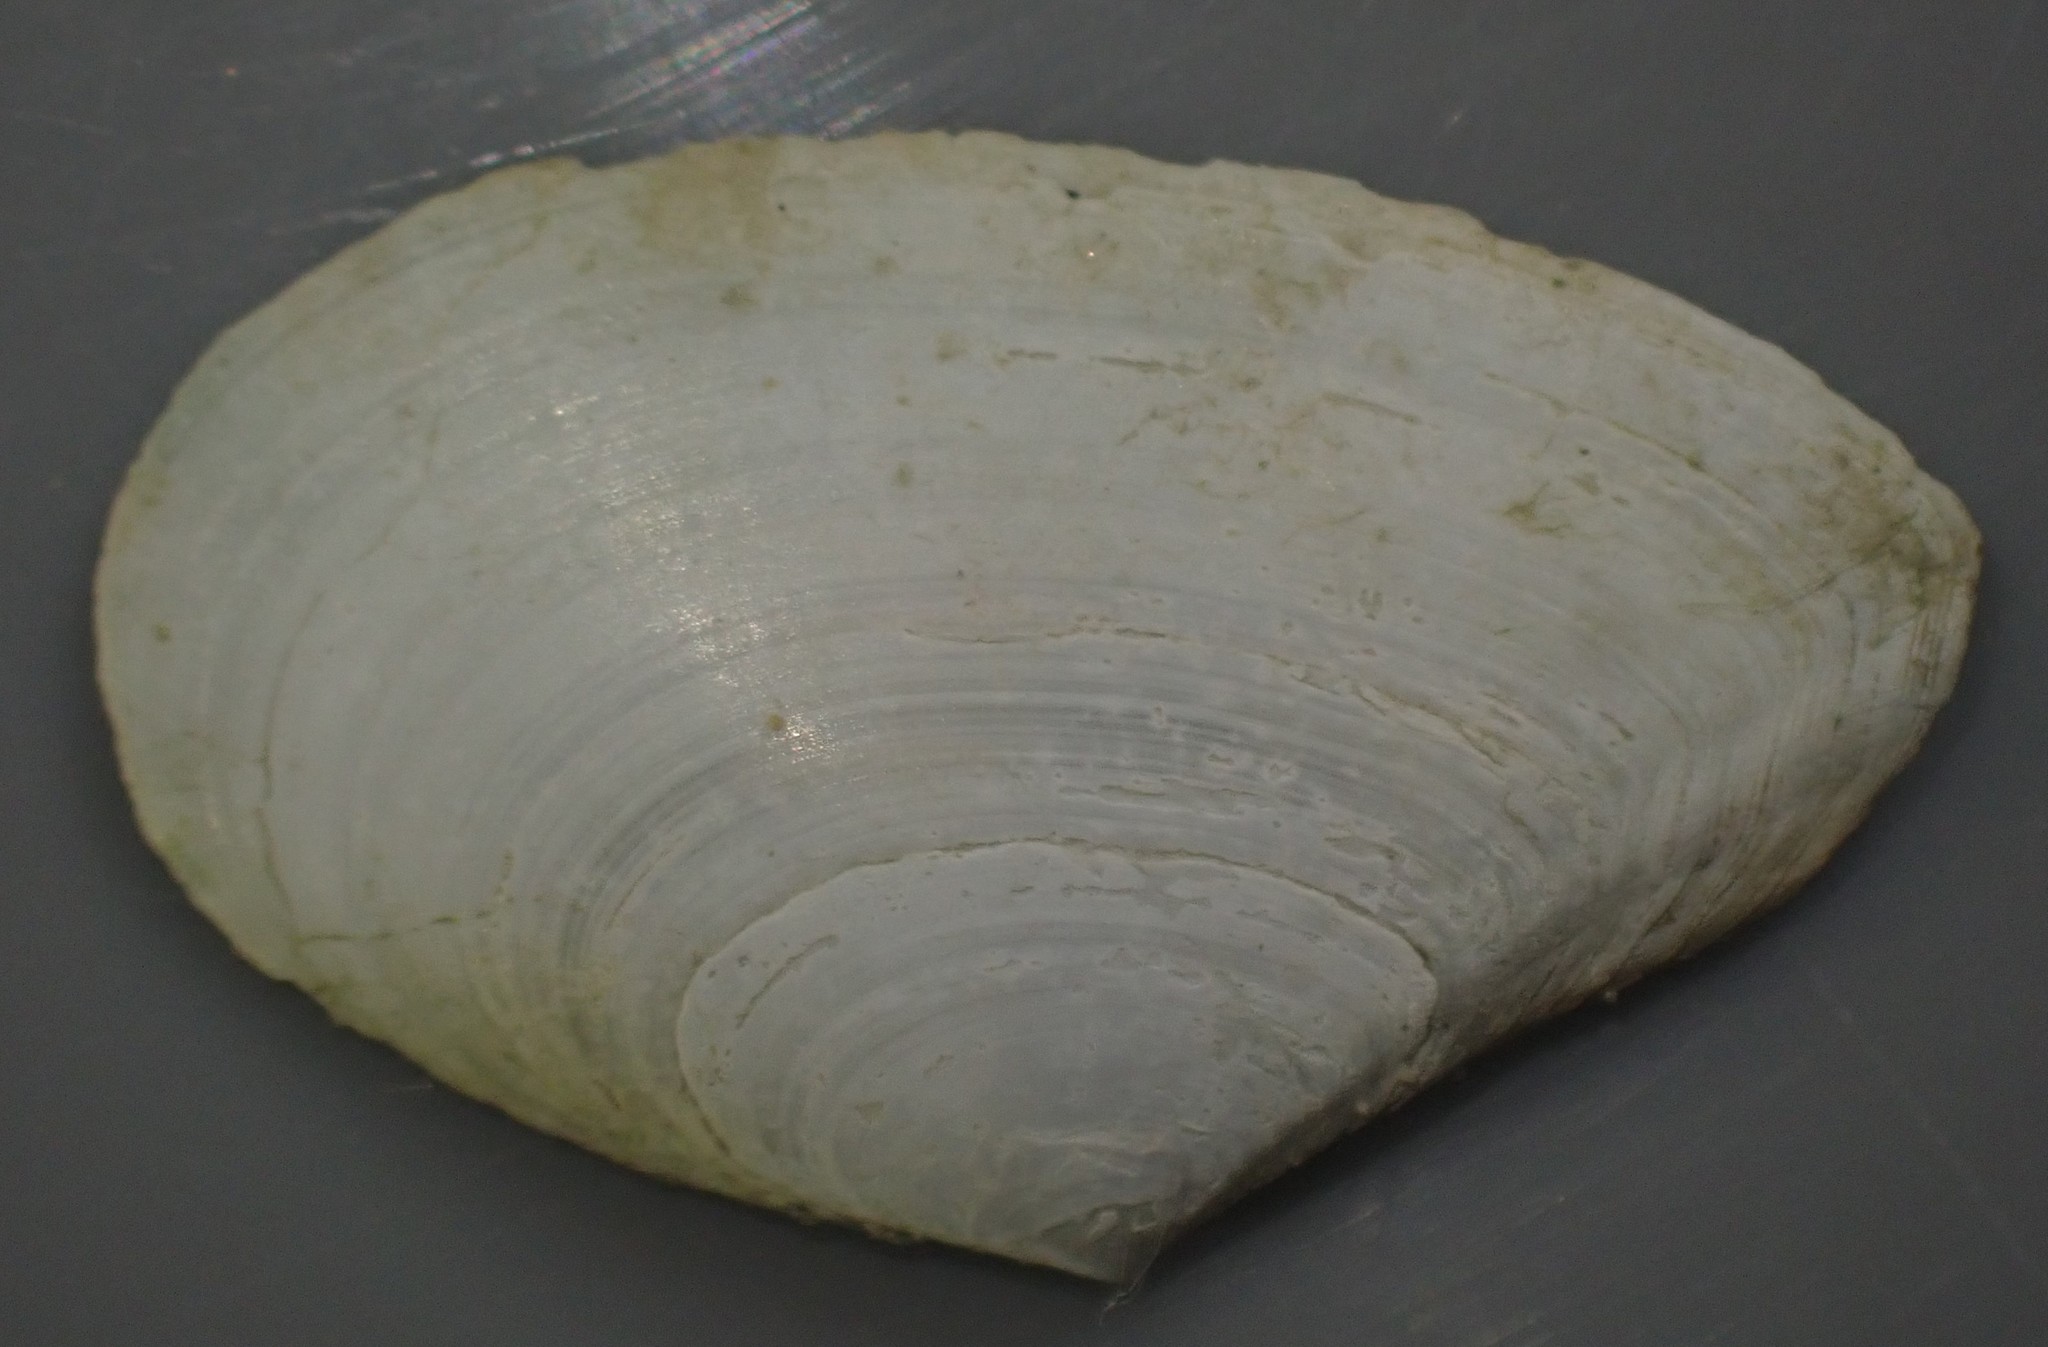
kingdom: Animalia
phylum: Mollusca
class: Bivalvia
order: Cardiida
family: Tellinidae
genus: Bartschicoma
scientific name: Bartschicoma edgari
